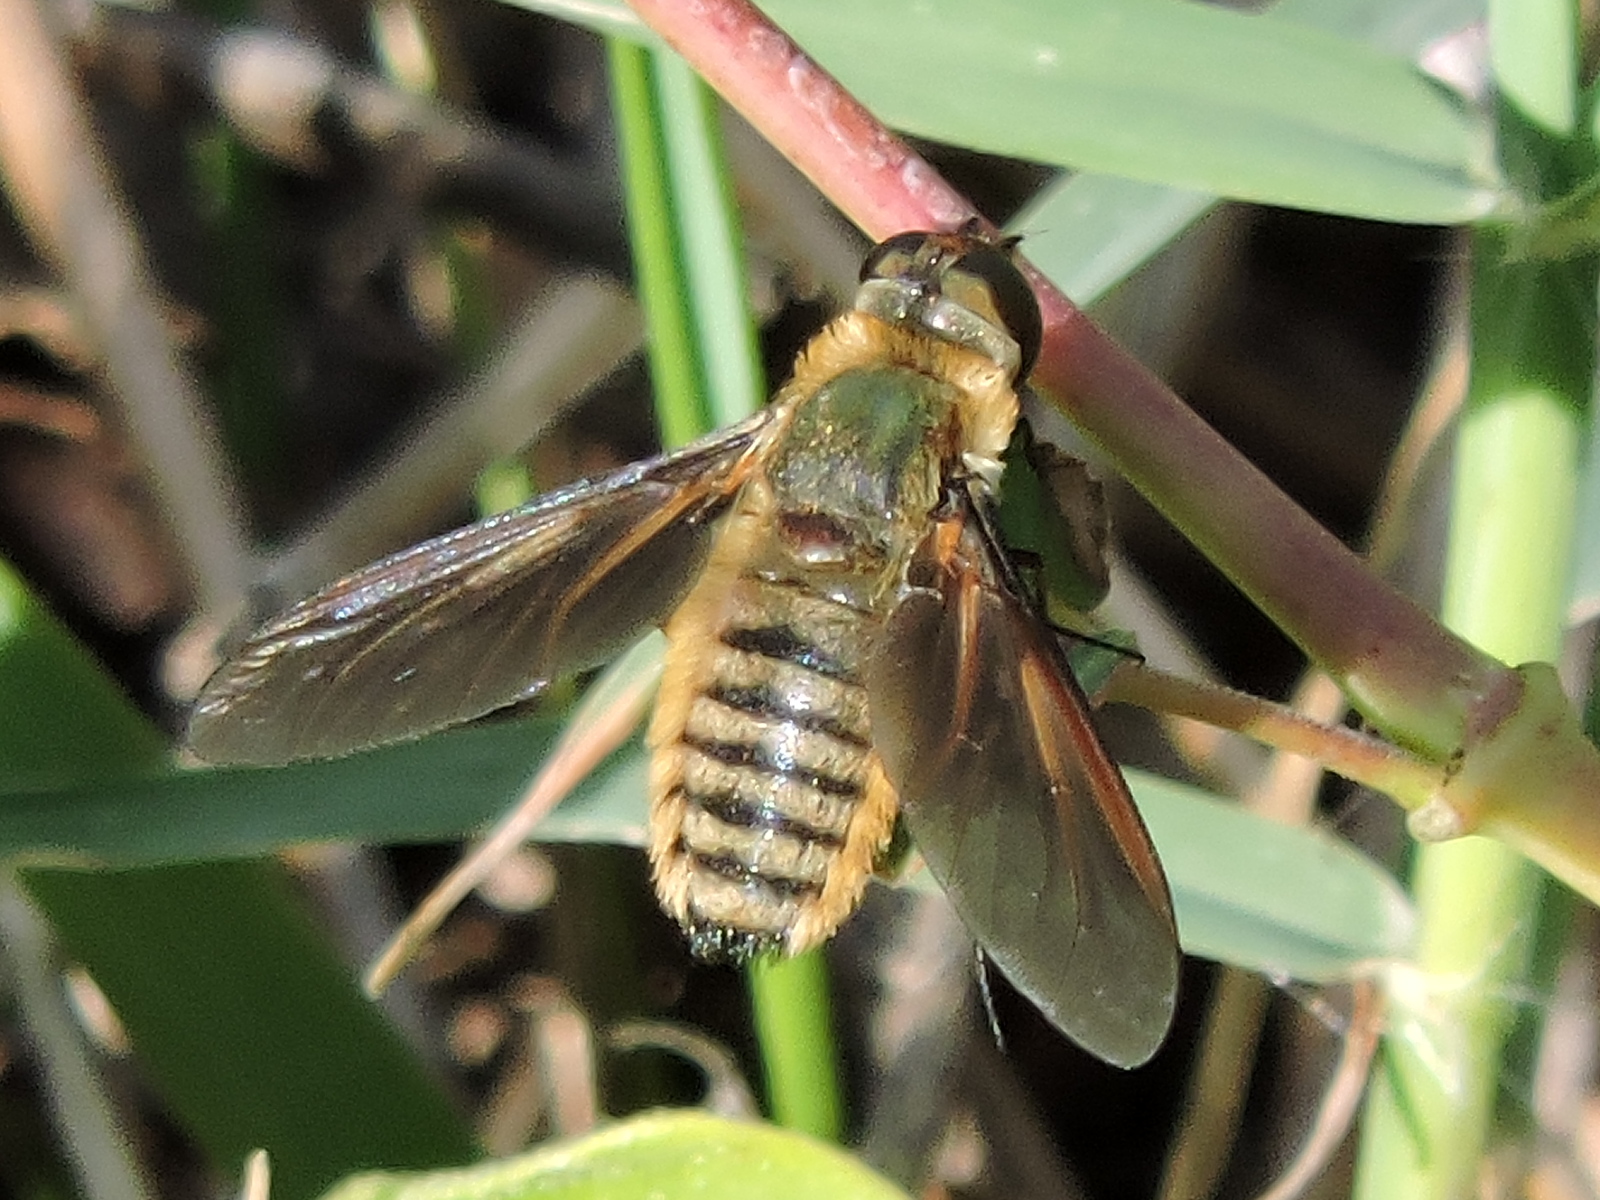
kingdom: Animalia
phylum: Arthropoda
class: Insecta
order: Diptera
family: Bombyliidae
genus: Poecilanthrax
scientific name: Poecilanthrax lucifer
